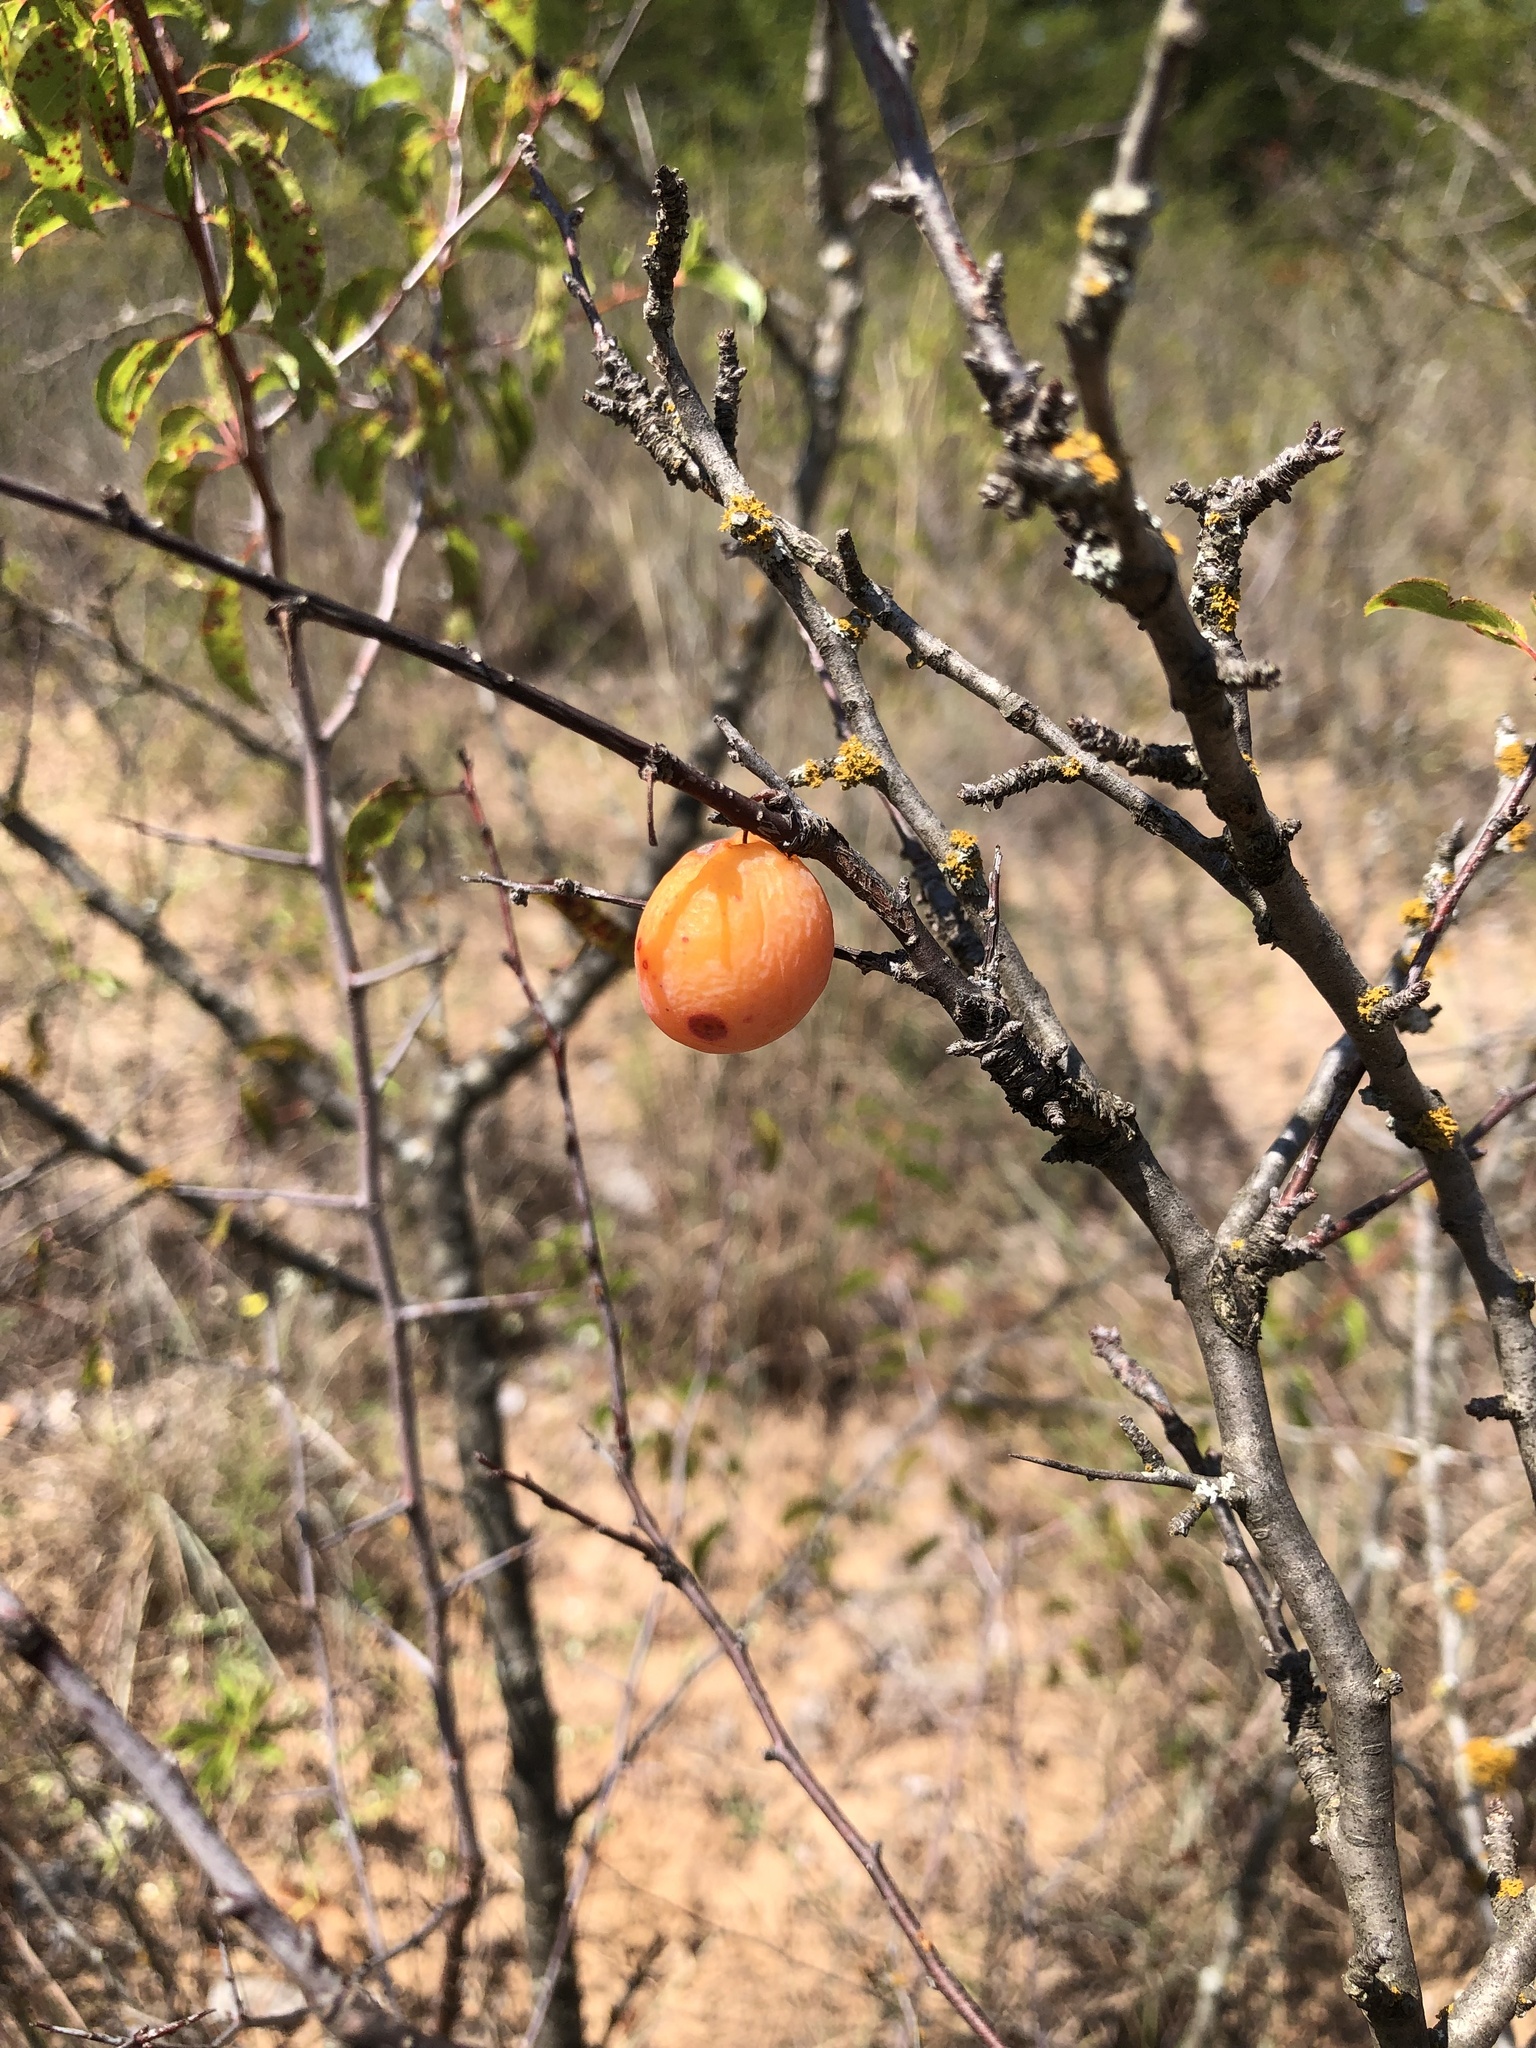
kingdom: Plantae
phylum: Tracheophyta
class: Magnoliopsida
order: Rosales
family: Rosaceae
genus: Prunus
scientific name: Prunus angustifolia
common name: Cherokee plum
